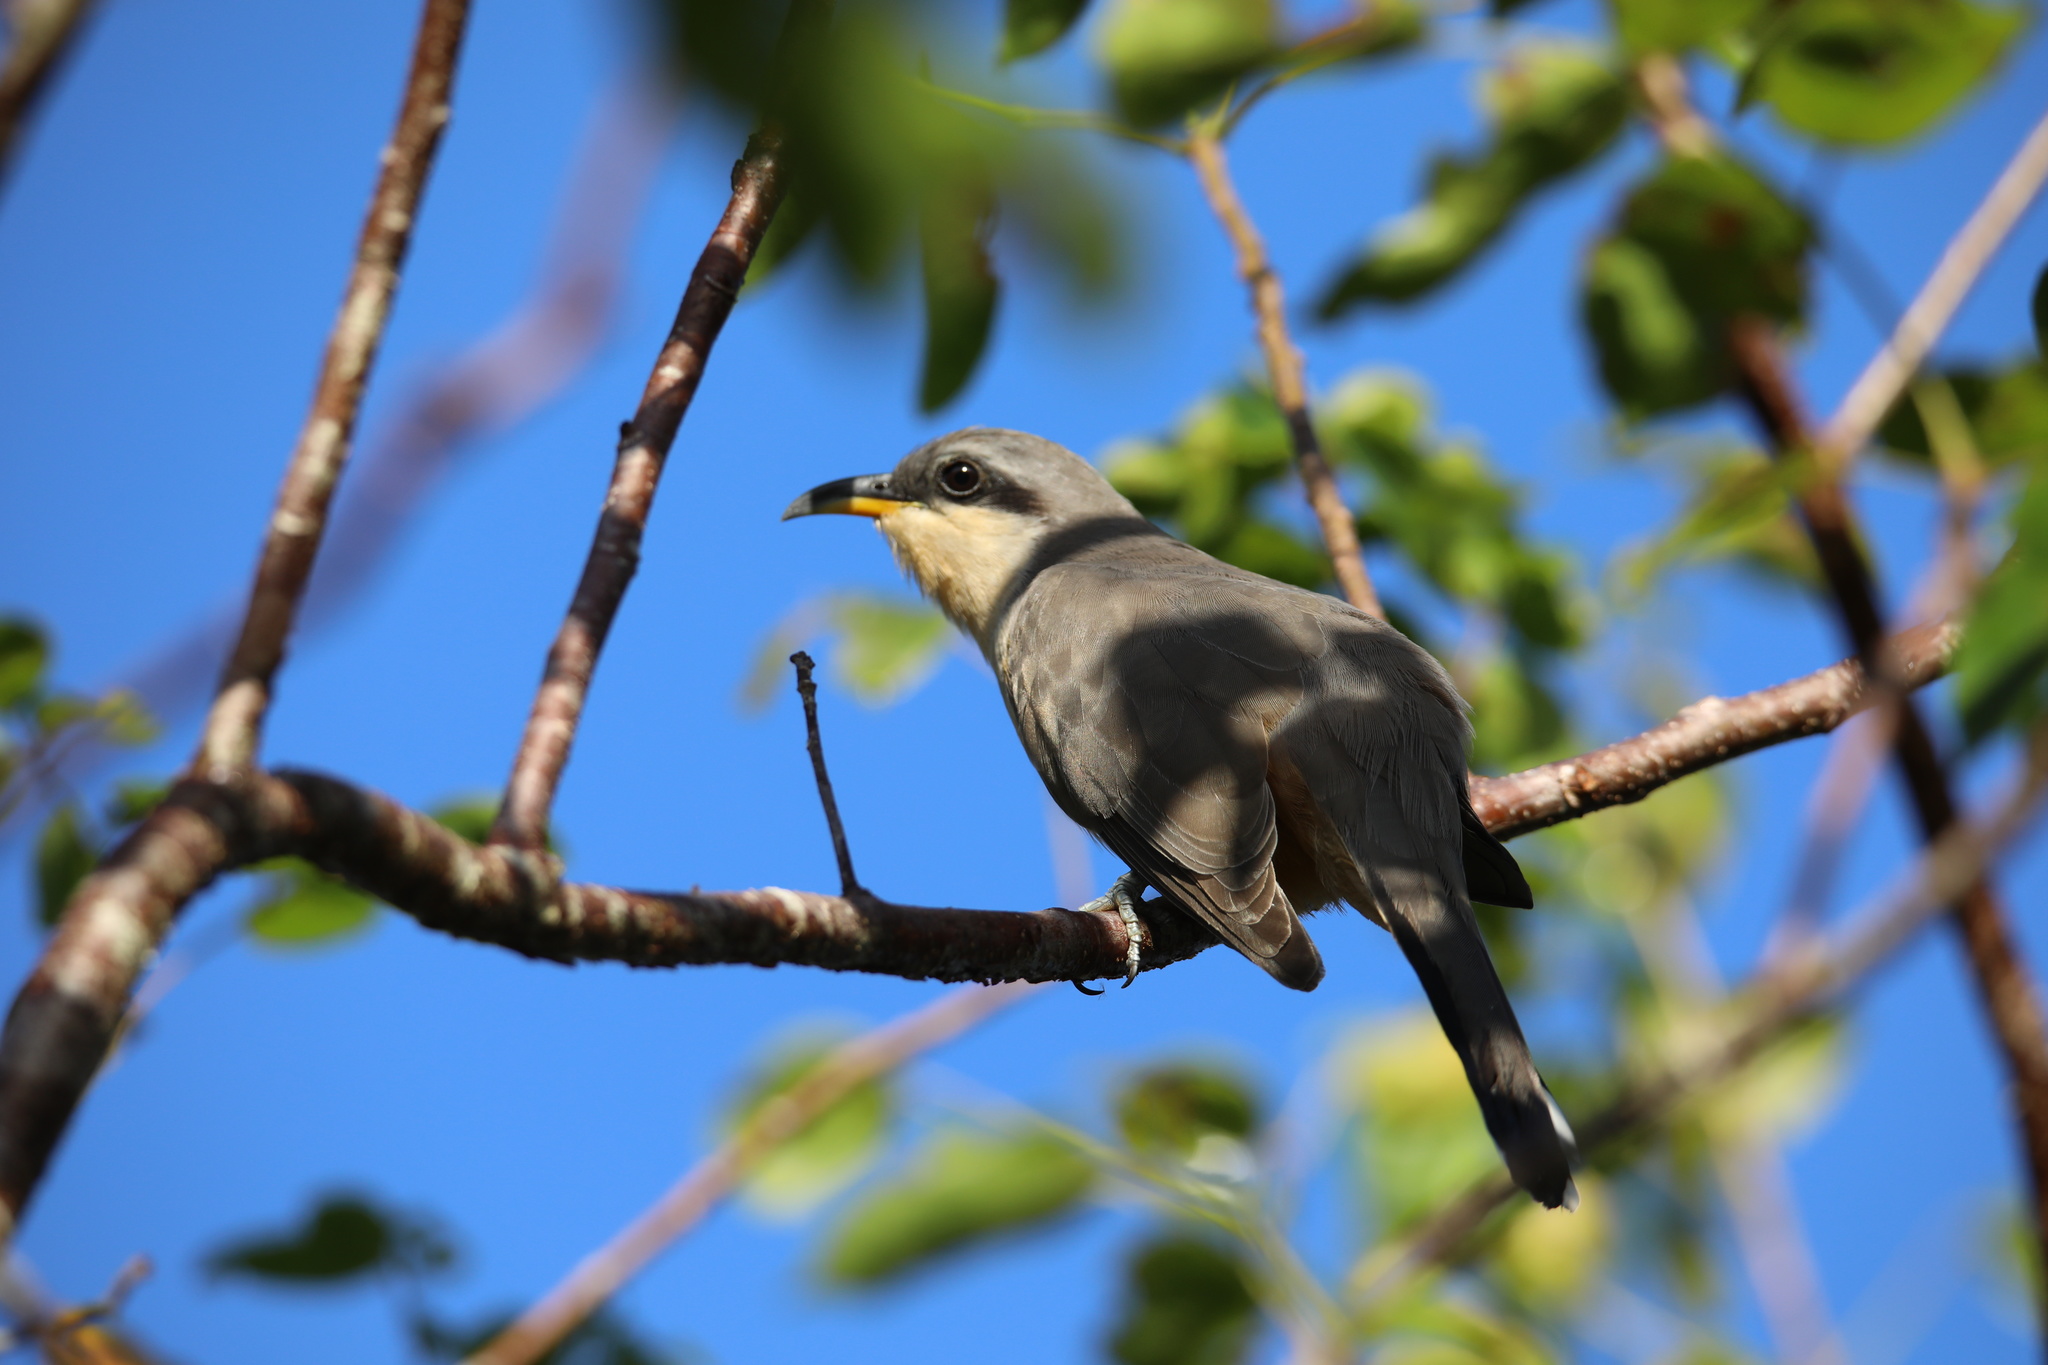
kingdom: Animalia
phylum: Chordata
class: Aves
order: Cuculiformes
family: Cuculidae
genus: Coccyzus
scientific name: Coccyzus minor
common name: Mangrove cuckoo
